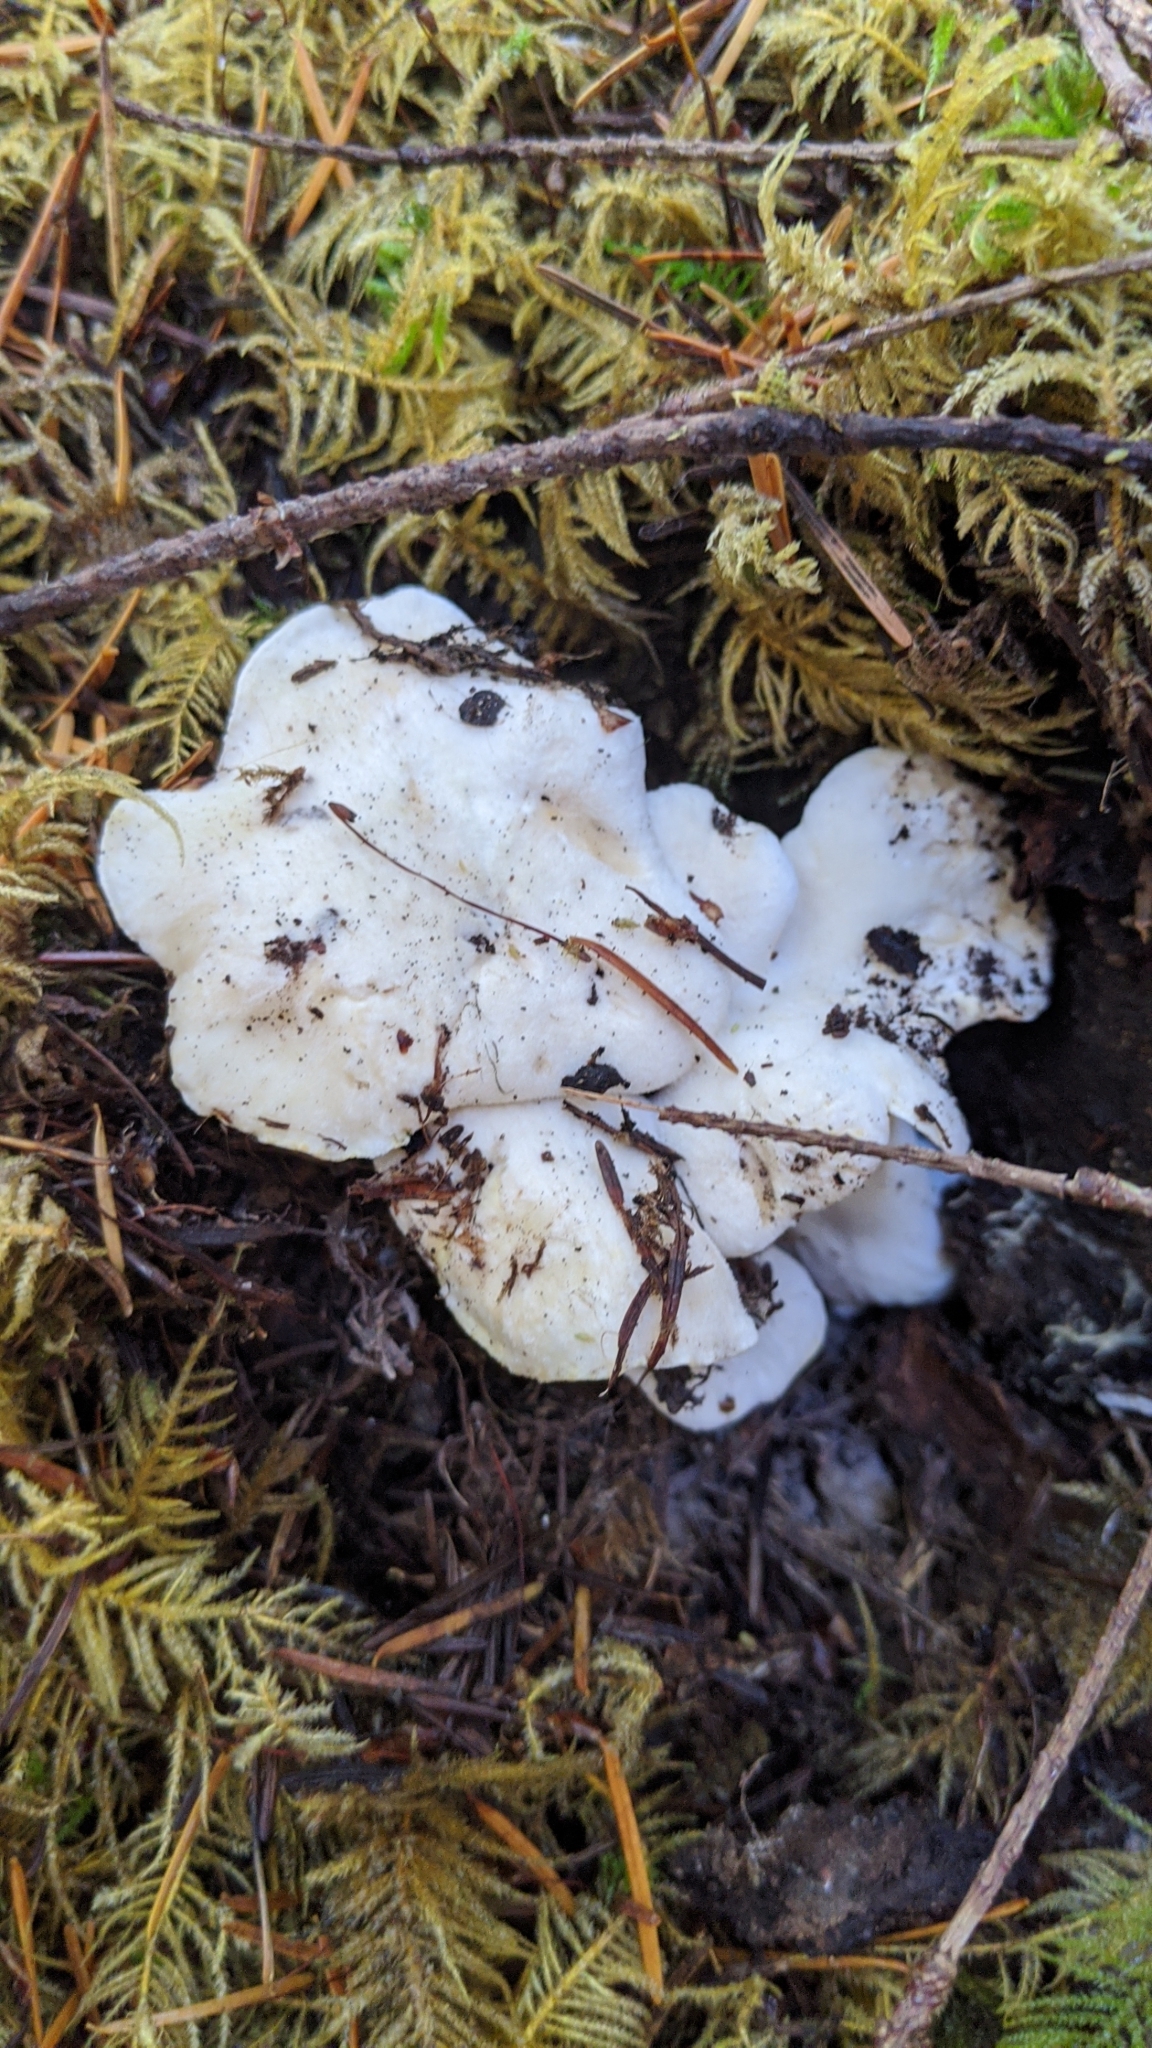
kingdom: Fungi
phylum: Basidiomycota
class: Agaricomycetes
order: Cantharellales
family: Hydnaceae
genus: Cantharellus
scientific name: Cantharellus subalbidus
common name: White chanterelle
